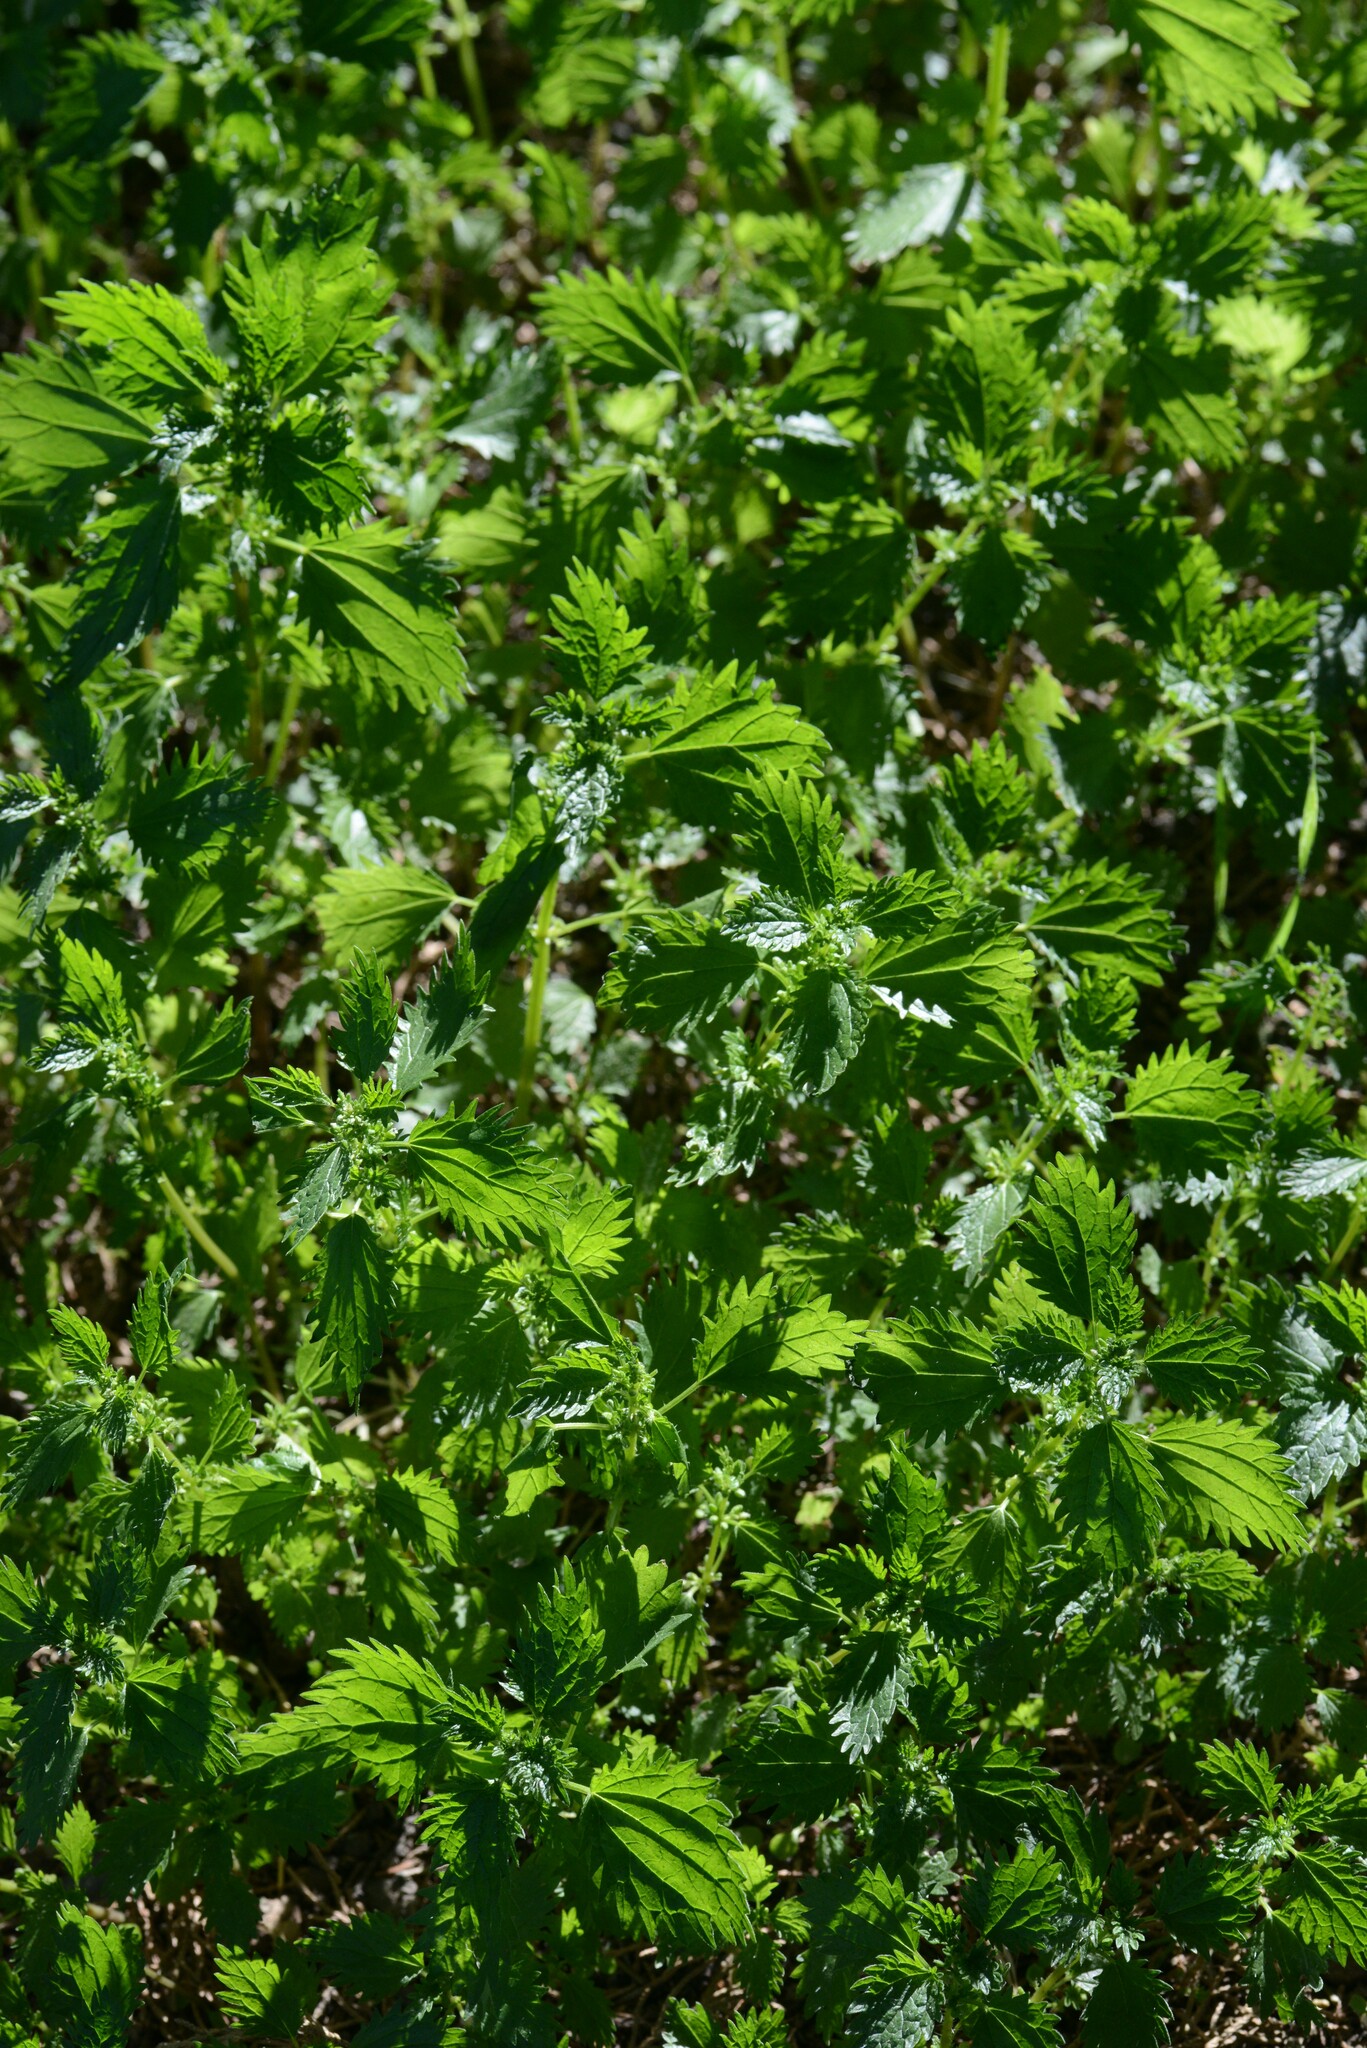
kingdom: Plantae
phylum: Tracheophyta
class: Magnoliopsida
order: Rosales
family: Urticaceae
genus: Urtica
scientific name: Urtica urens
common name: Dwarf nettle
